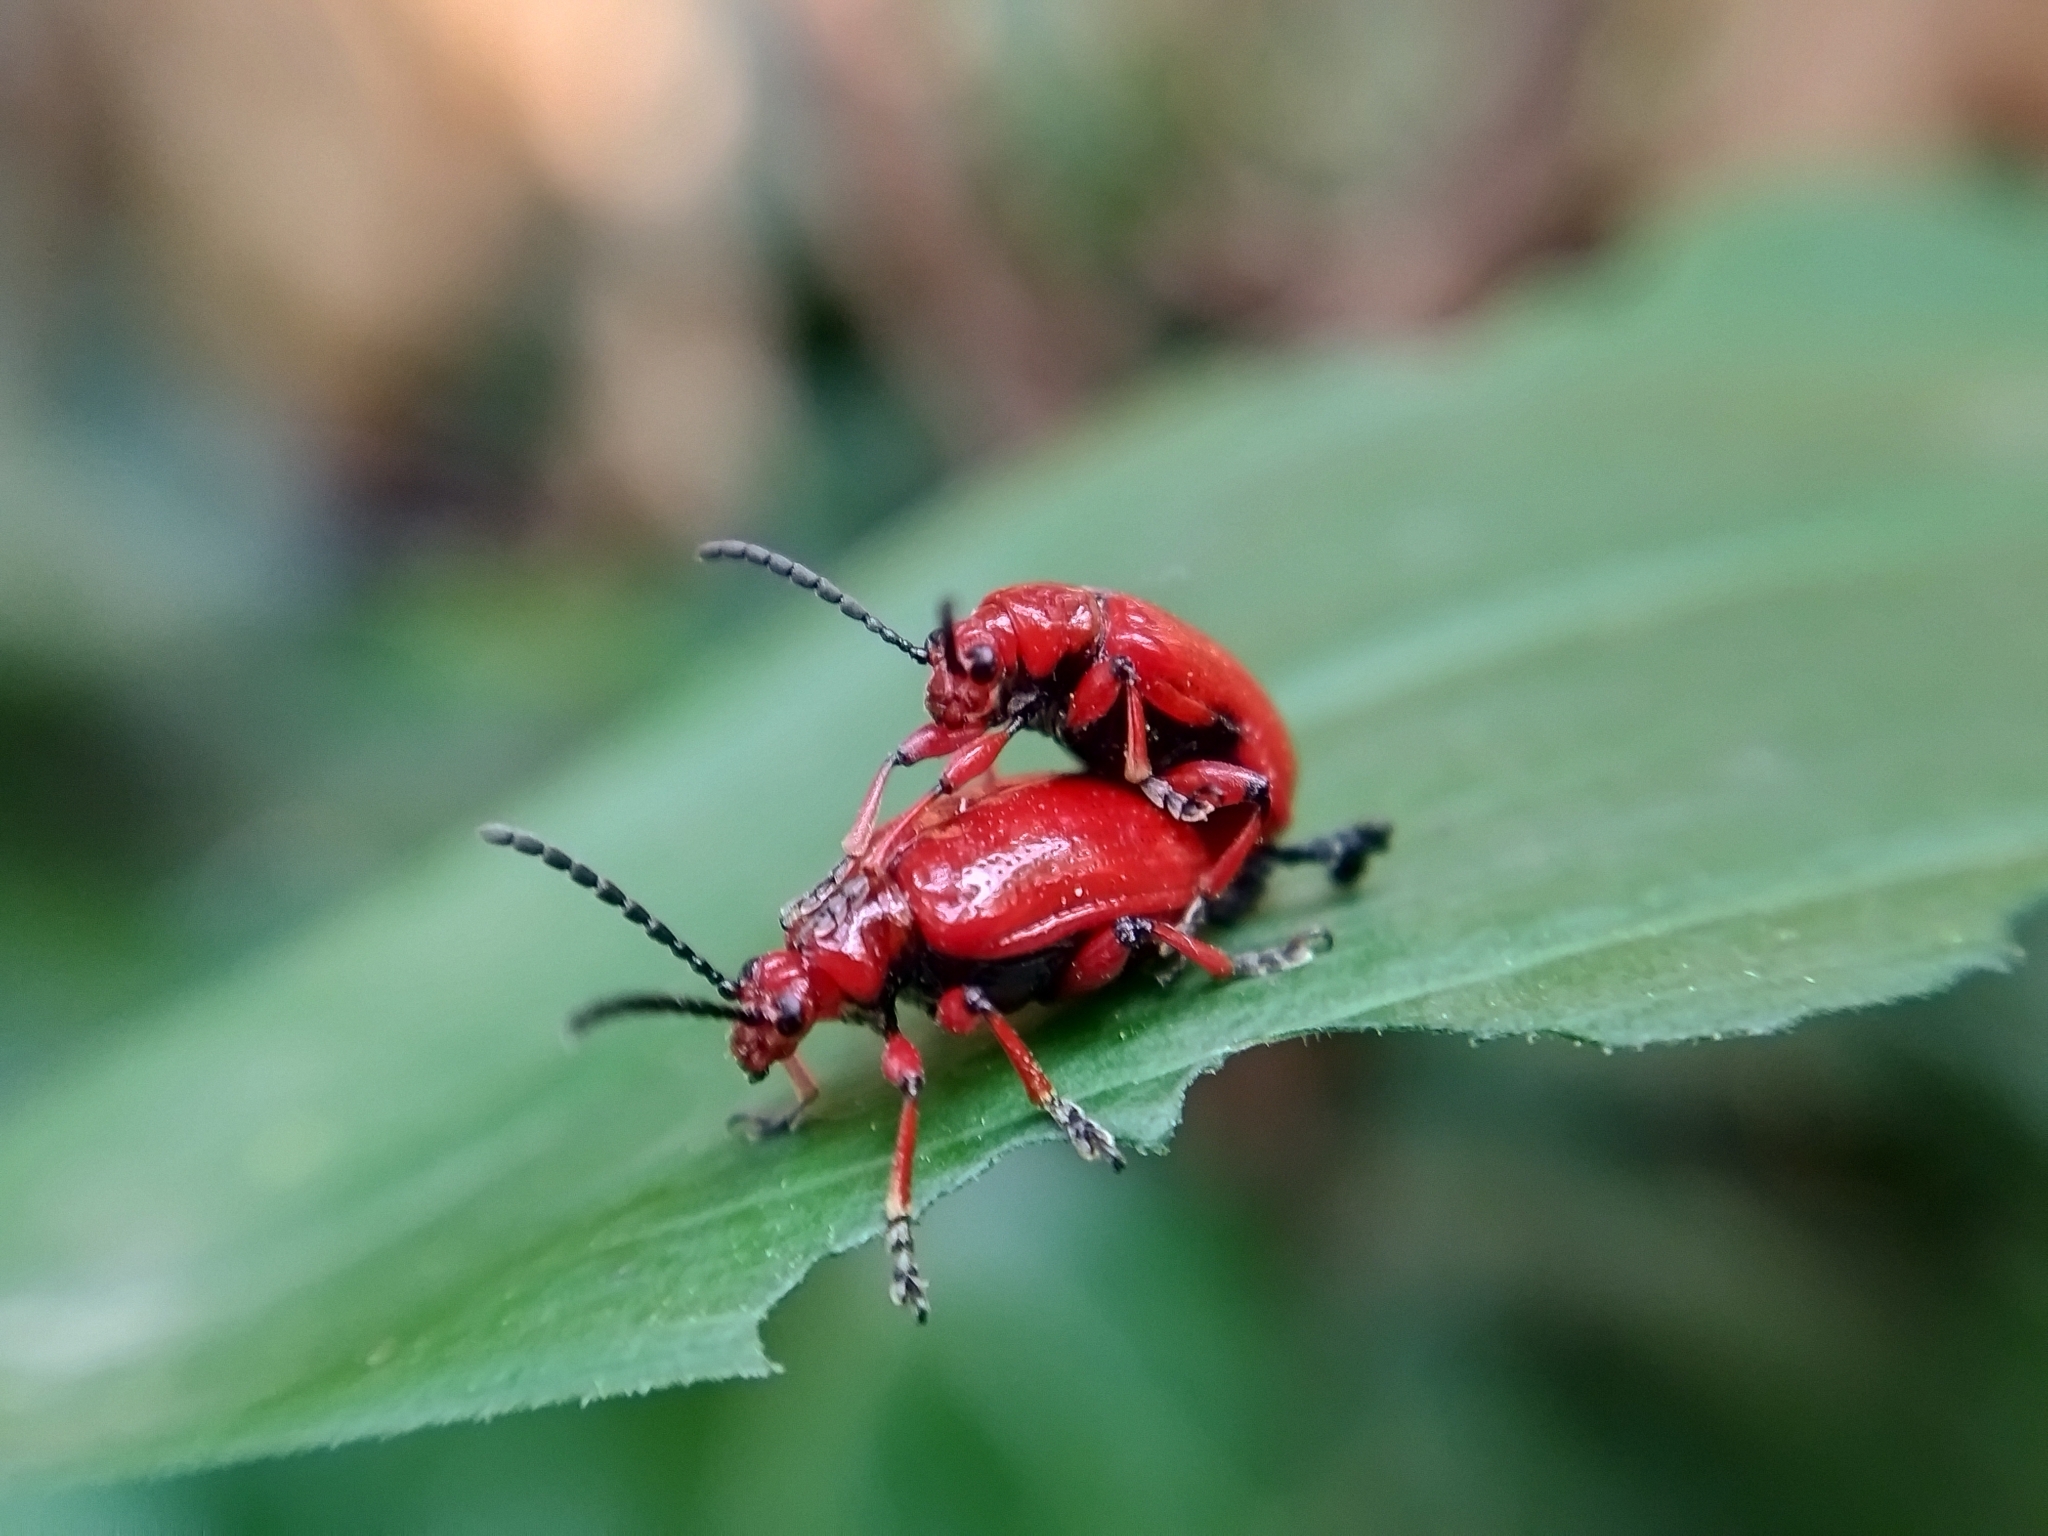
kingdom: Animalia
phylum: Arthropoda
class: Insecta
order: Coleoptera
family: Chrysomelidae
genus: Lilioceris
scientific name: Lilioceris merdigera
